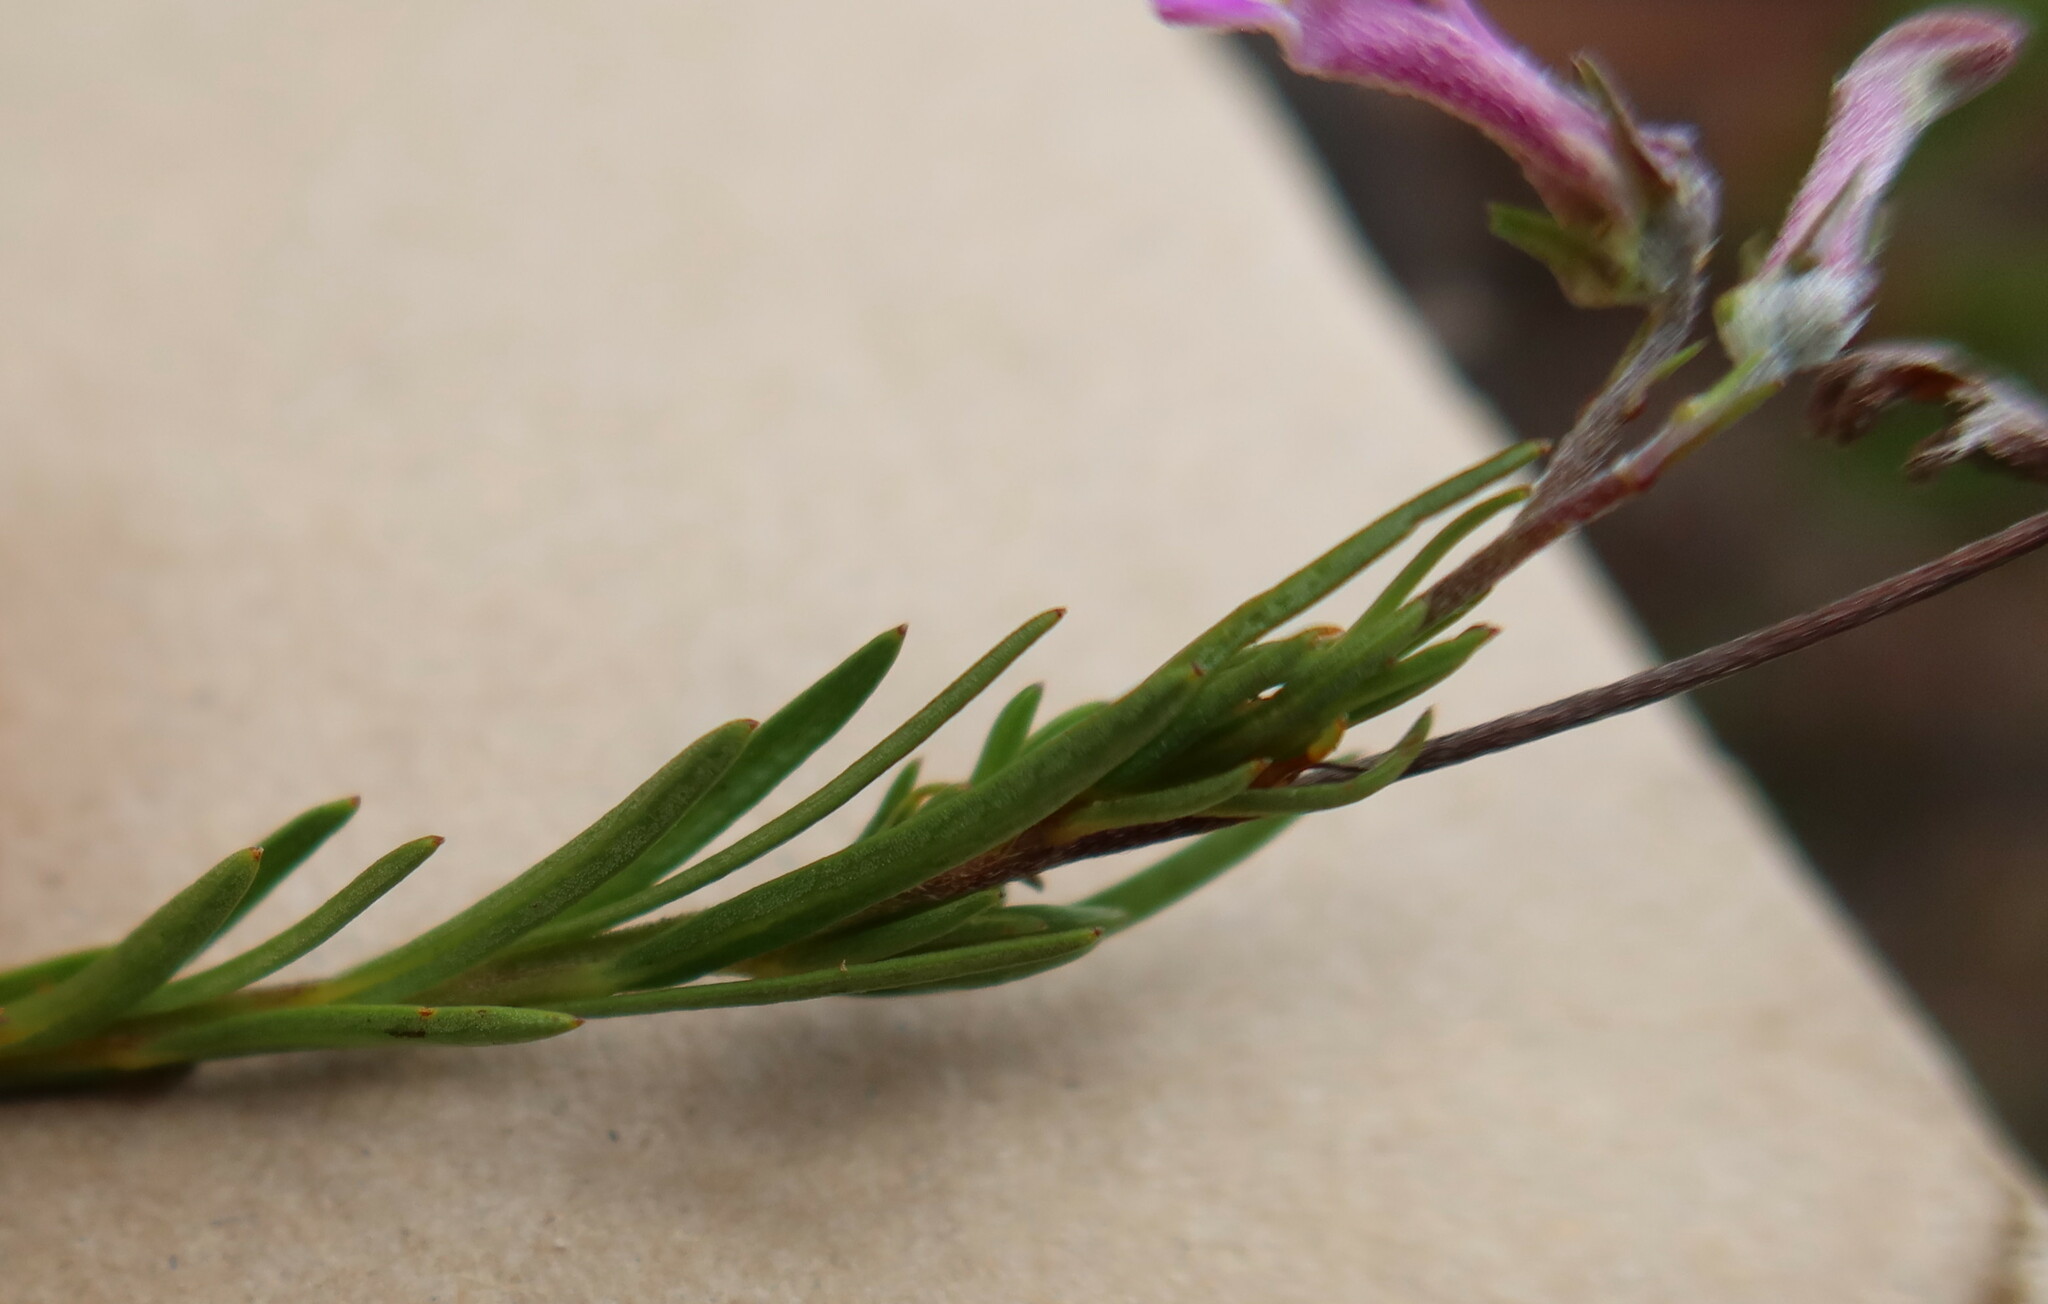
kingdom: Plantae
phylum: Tracheophyta
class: Magnoliopsida
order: Asterales
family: Campanulaceae
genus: Lobelia
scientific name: Lobelia pinifolia
